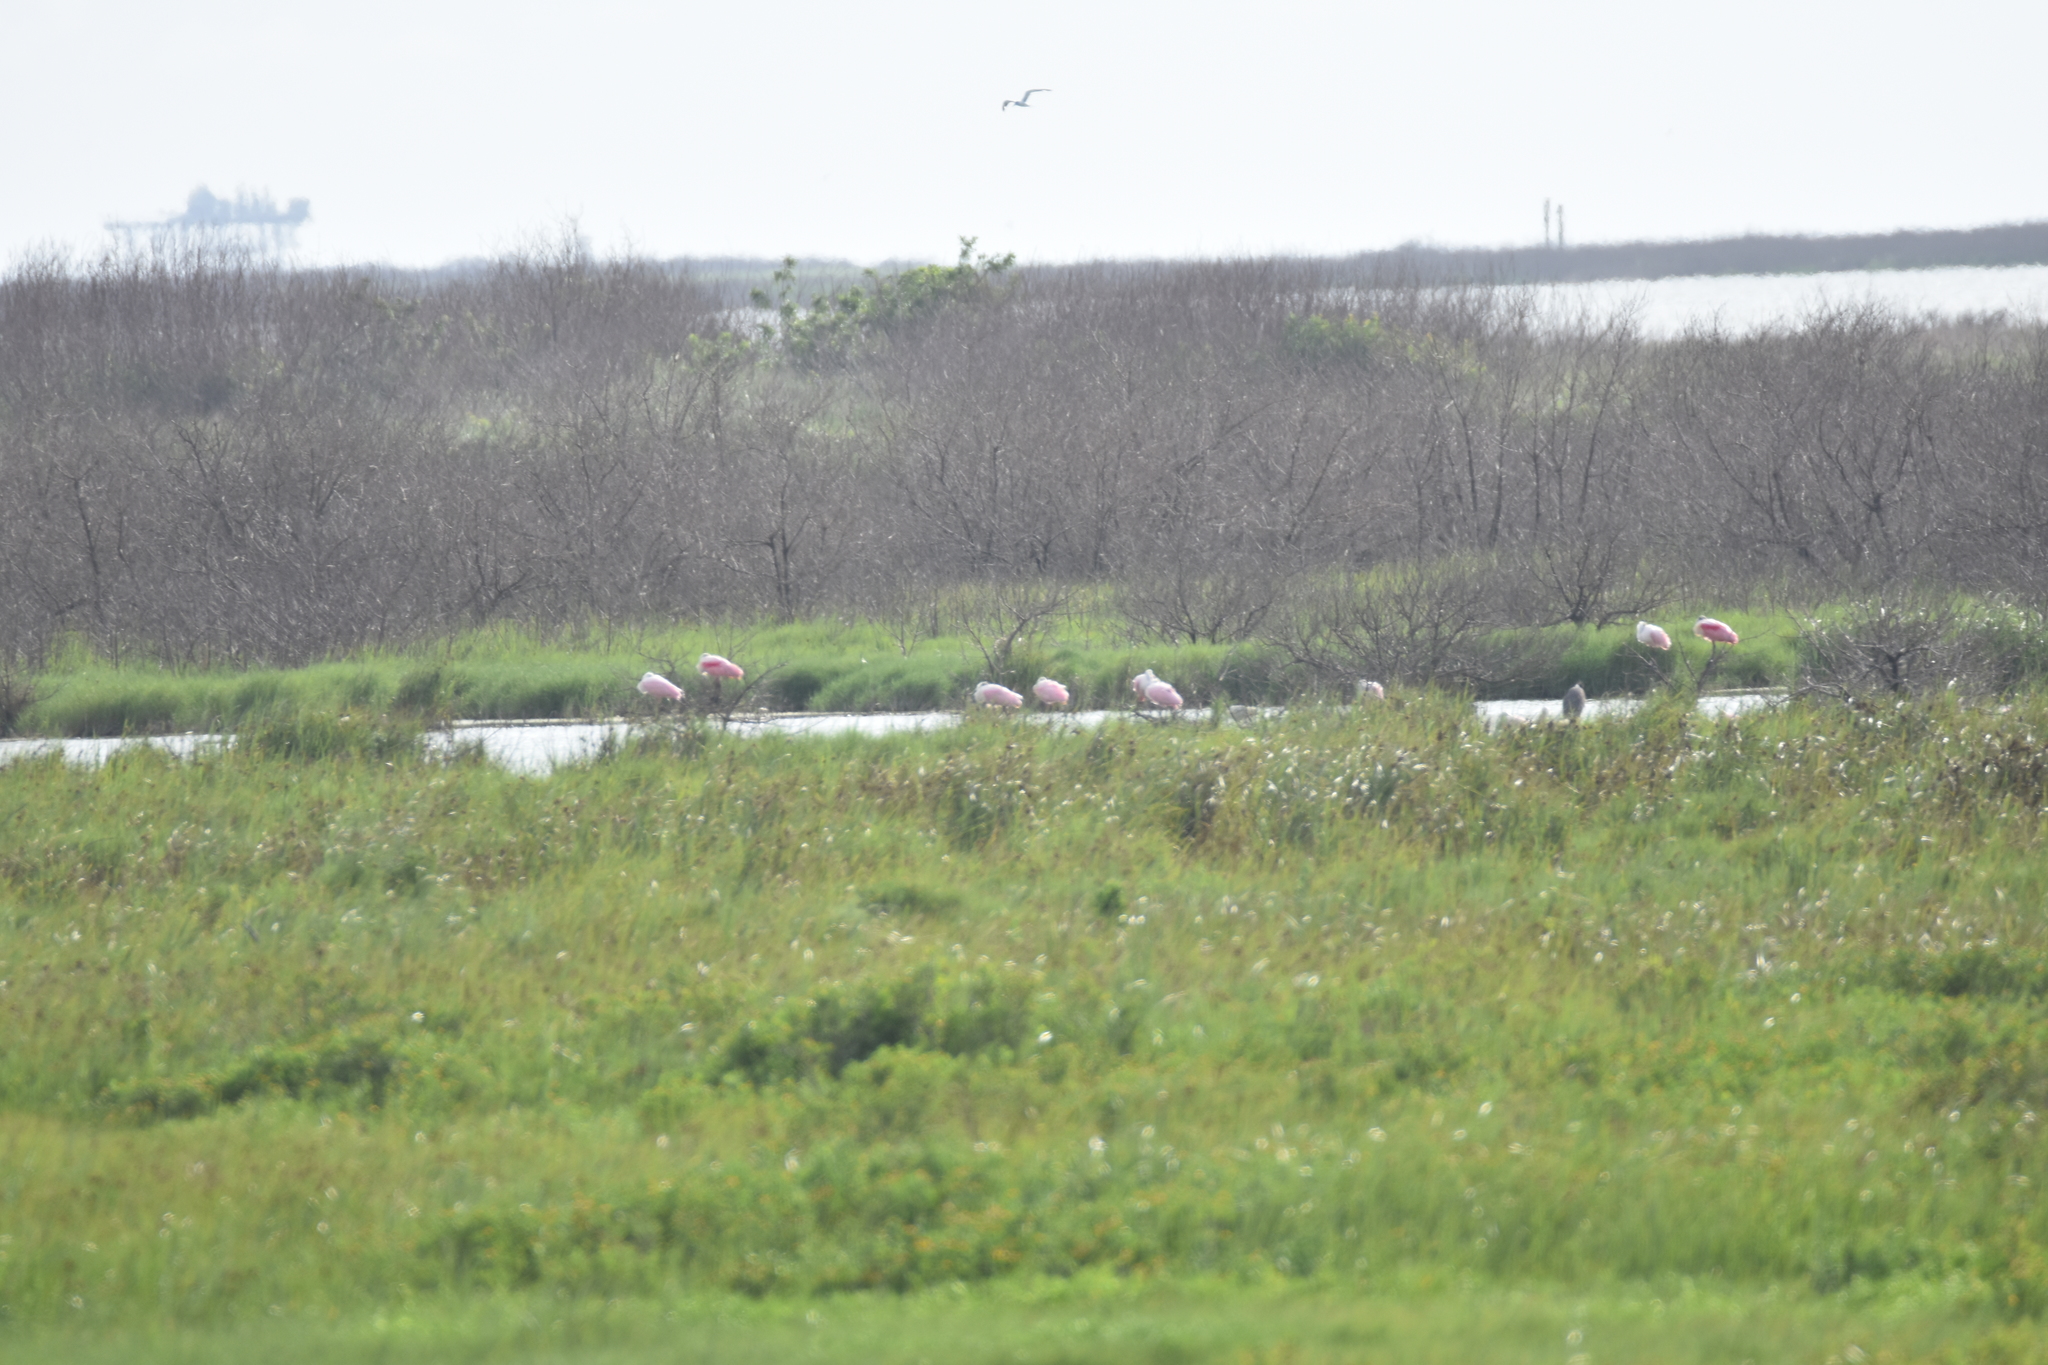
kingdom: Animalia
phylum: Chordata
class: Aves
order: Pelecaniformes
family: Threskiornithidae
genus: Platalea
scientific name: Platalea ajaja
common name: Roseate spoonbill
